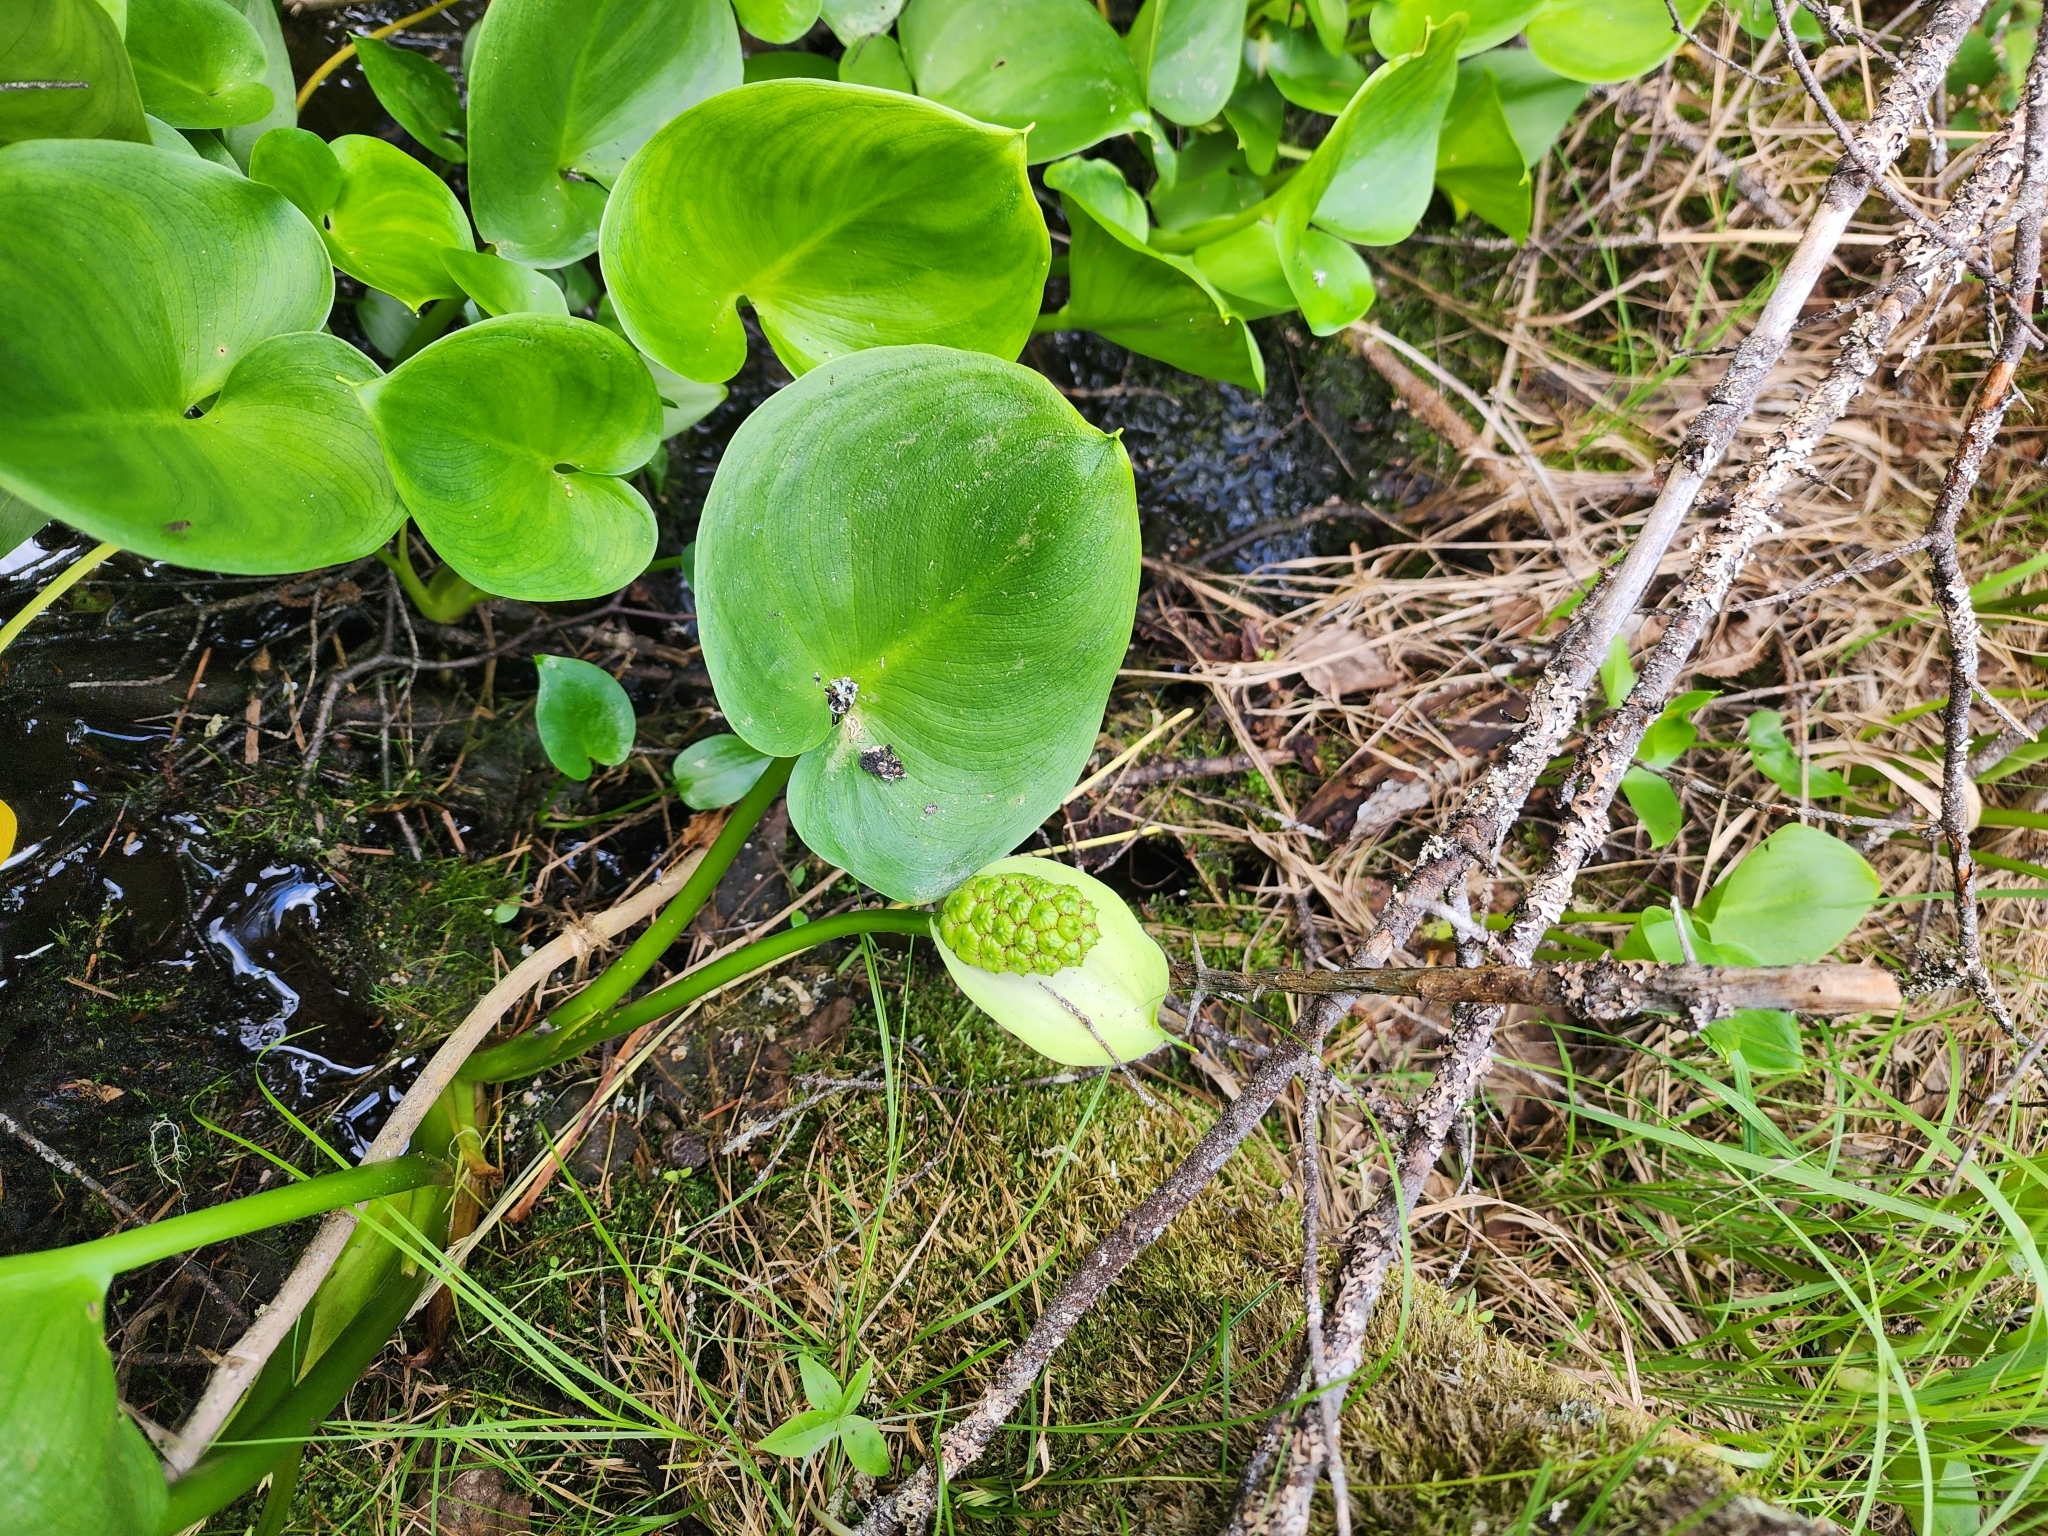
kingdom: Plantae
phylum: Tracheophyta
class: Liliopsida
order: Alismatales
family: Araceae
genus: Calla
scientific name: Calla palustris
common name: Bog arum
